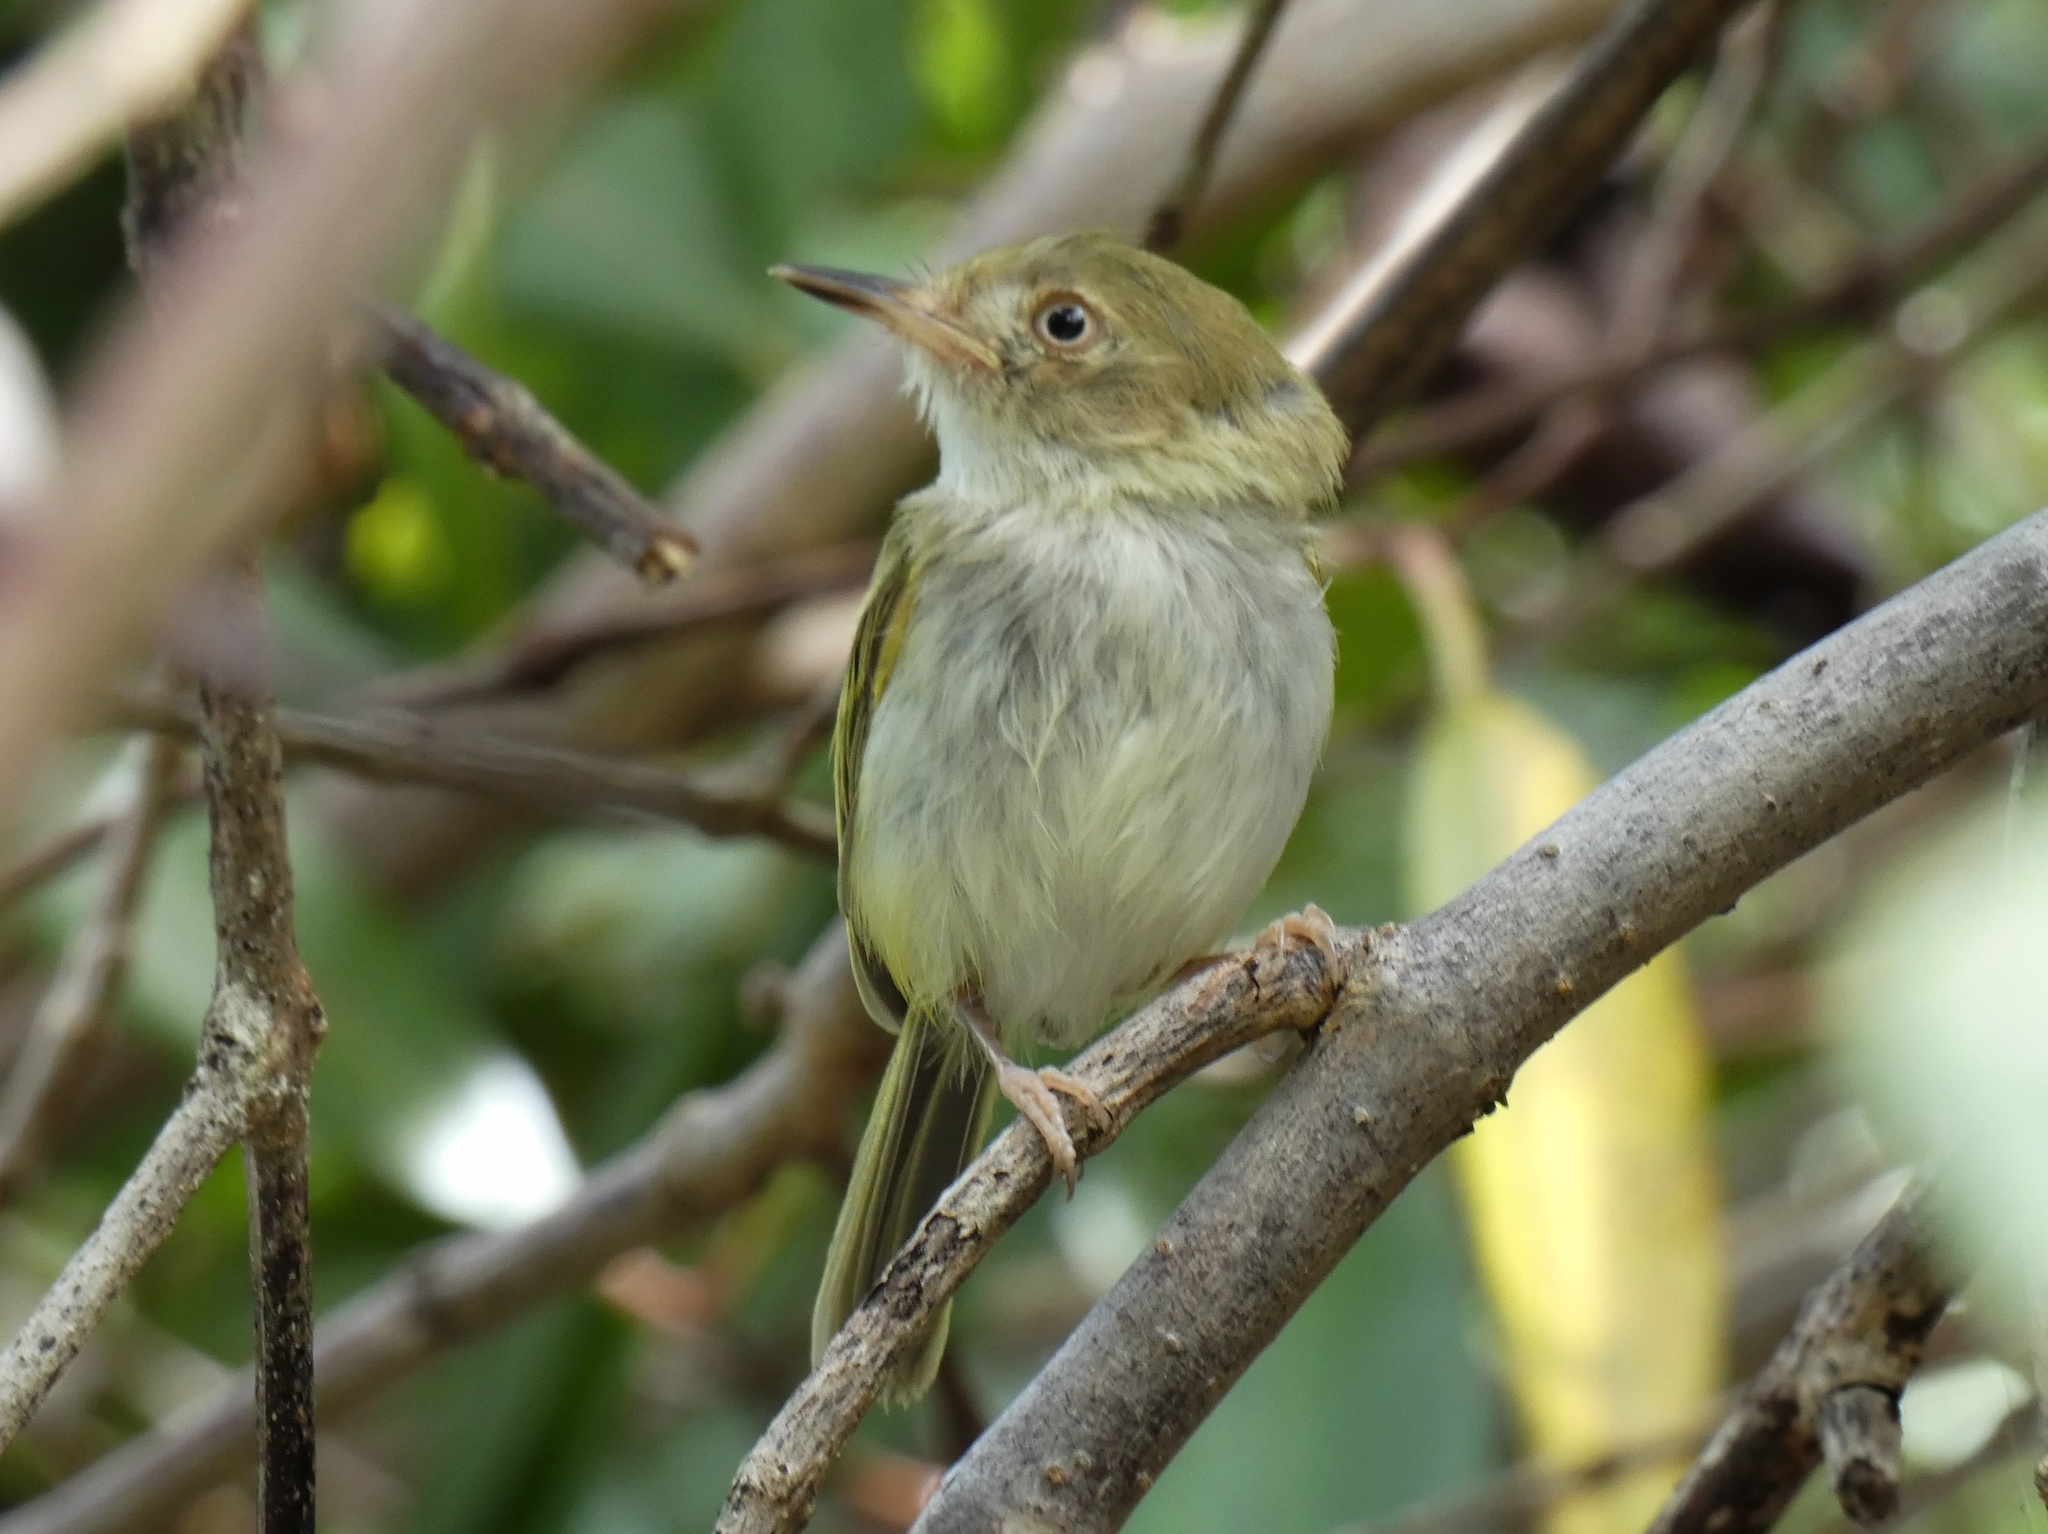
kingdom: Animalia
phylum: Chordata
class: Aves
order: Passeriformes
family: Tyrannidae
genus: Atalotriccus
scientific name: Atalotriccus pilaris
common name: Pale-eyed pygmy-tyrant
